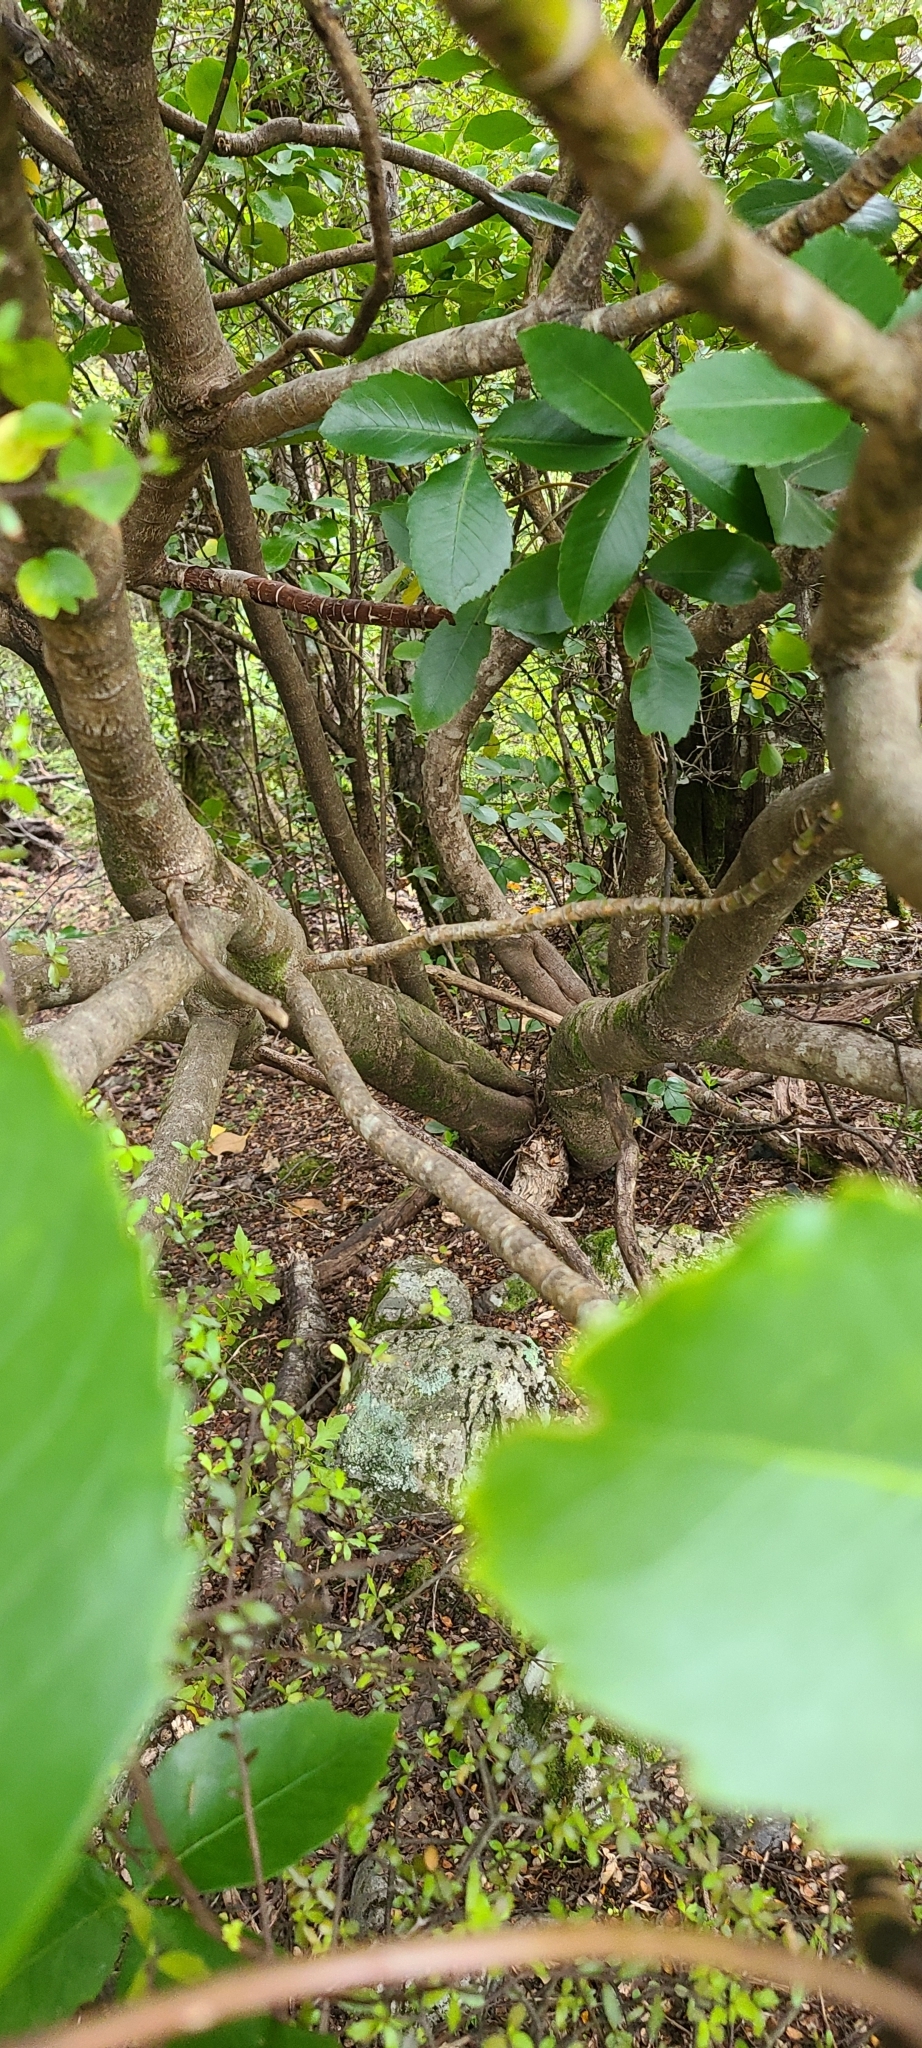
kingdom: Plantae
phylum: Tracheophyta
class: Magnoliopsida
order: Apiales
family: Araliaceae
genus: Neopanax
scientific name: Neopanax colensoi
